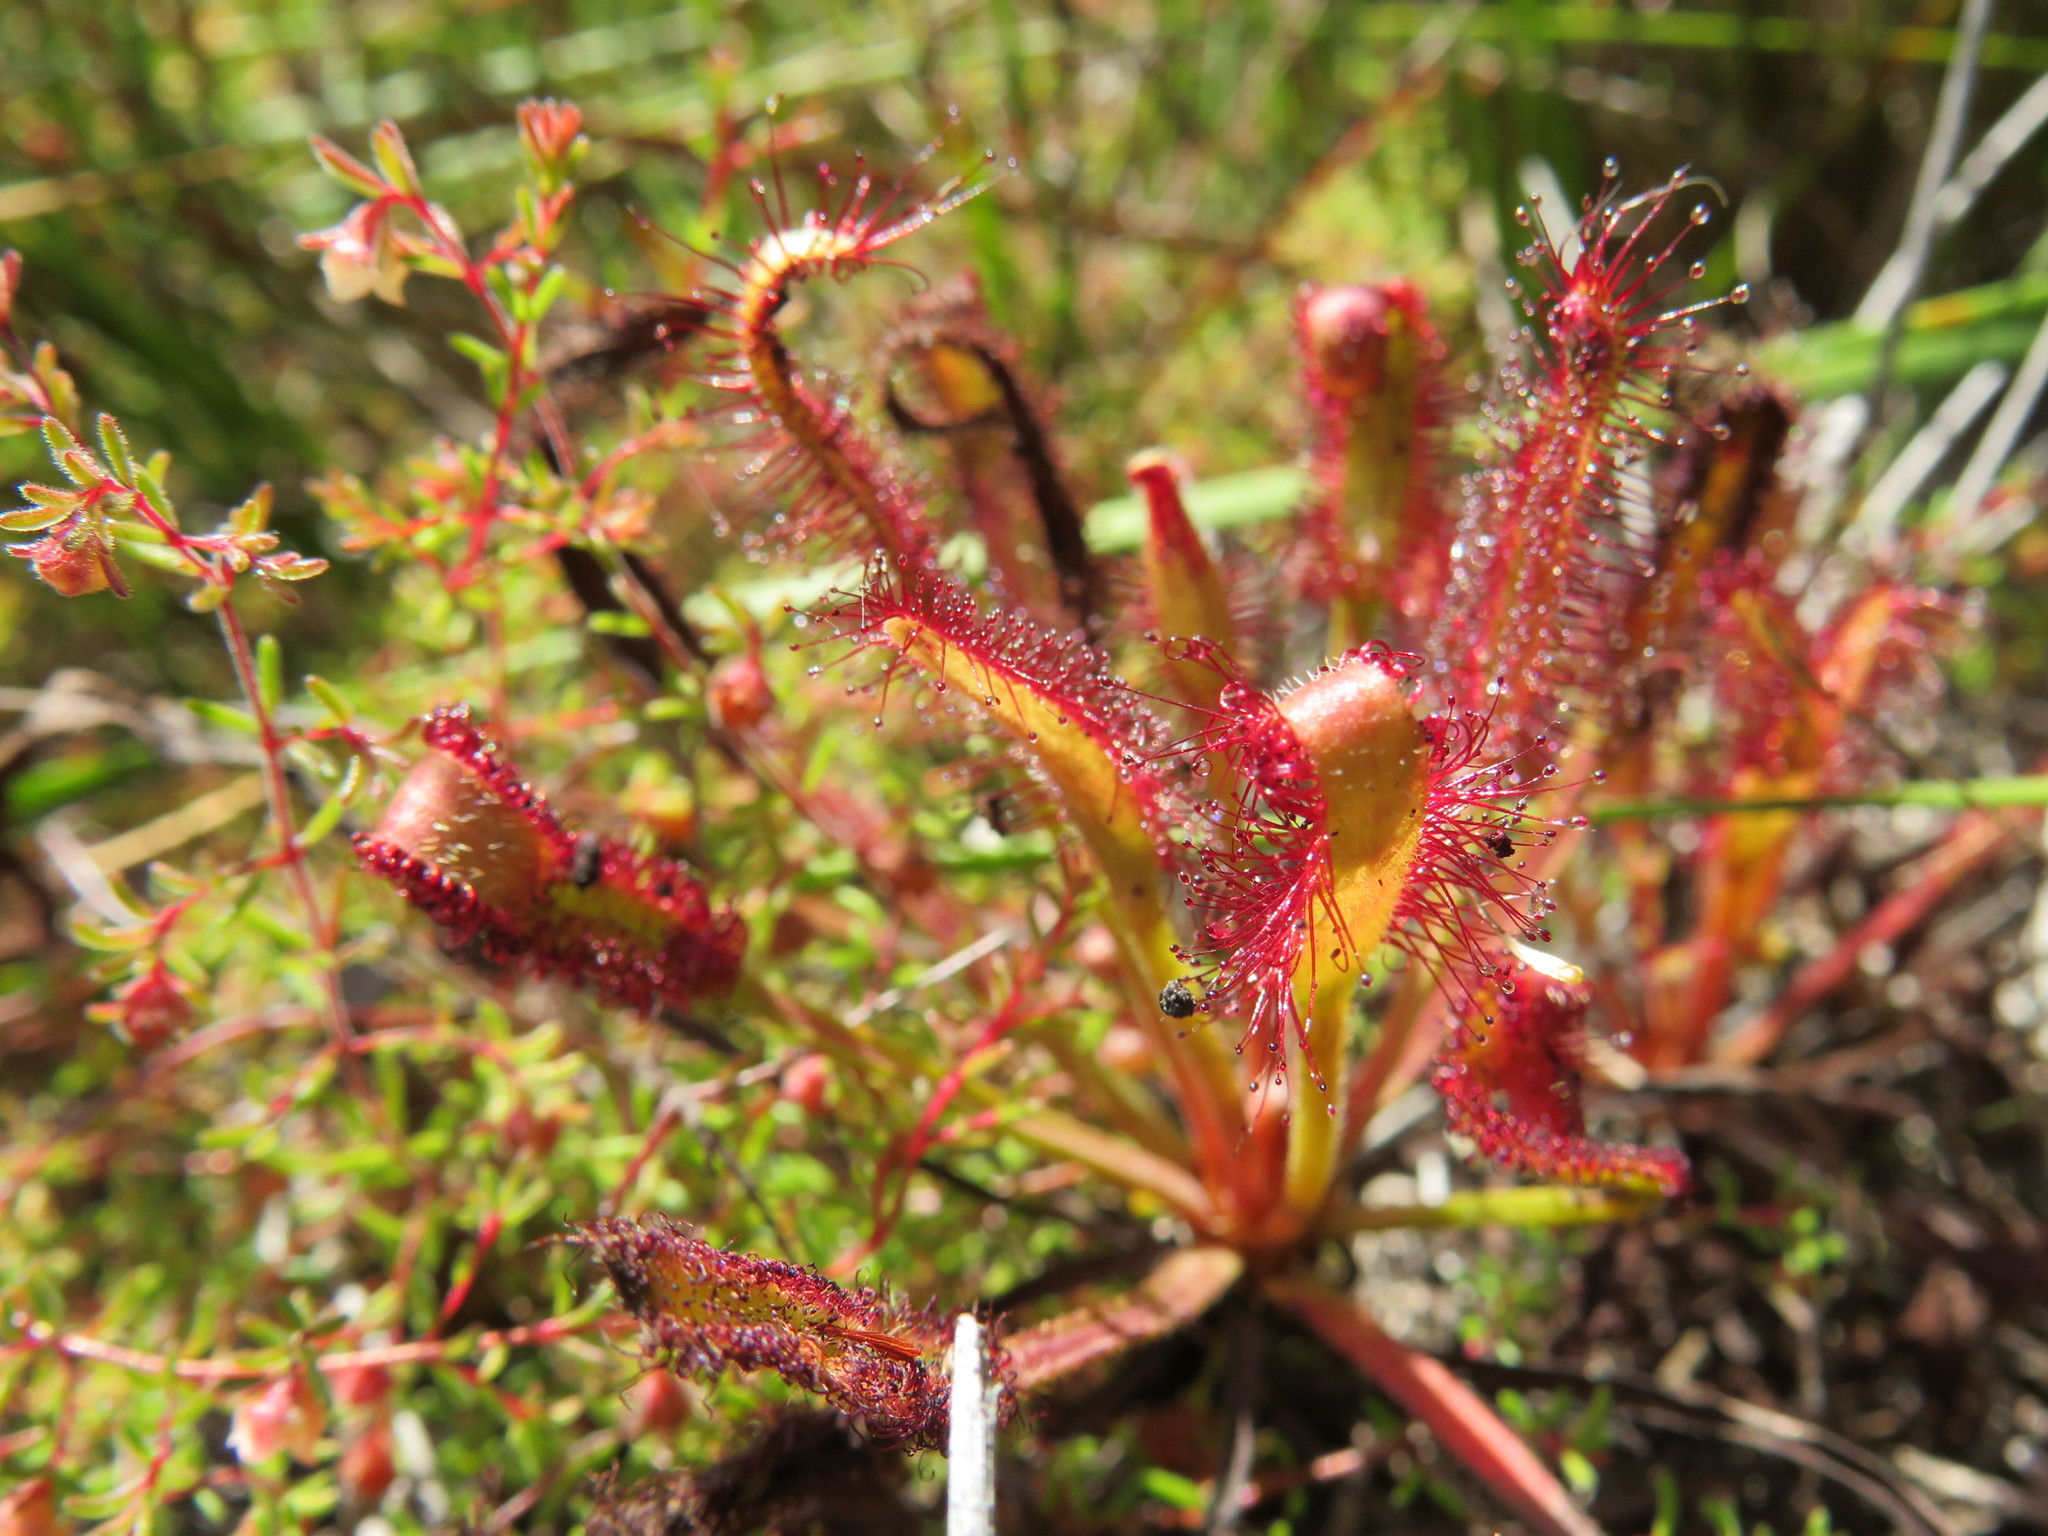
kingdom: Plantae
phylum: Tracheophyta
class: Magnoliopsida
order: Caryophyllales
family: Droseraceae
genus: Drosera
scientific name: Drosera capensis
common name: Cape sundew
